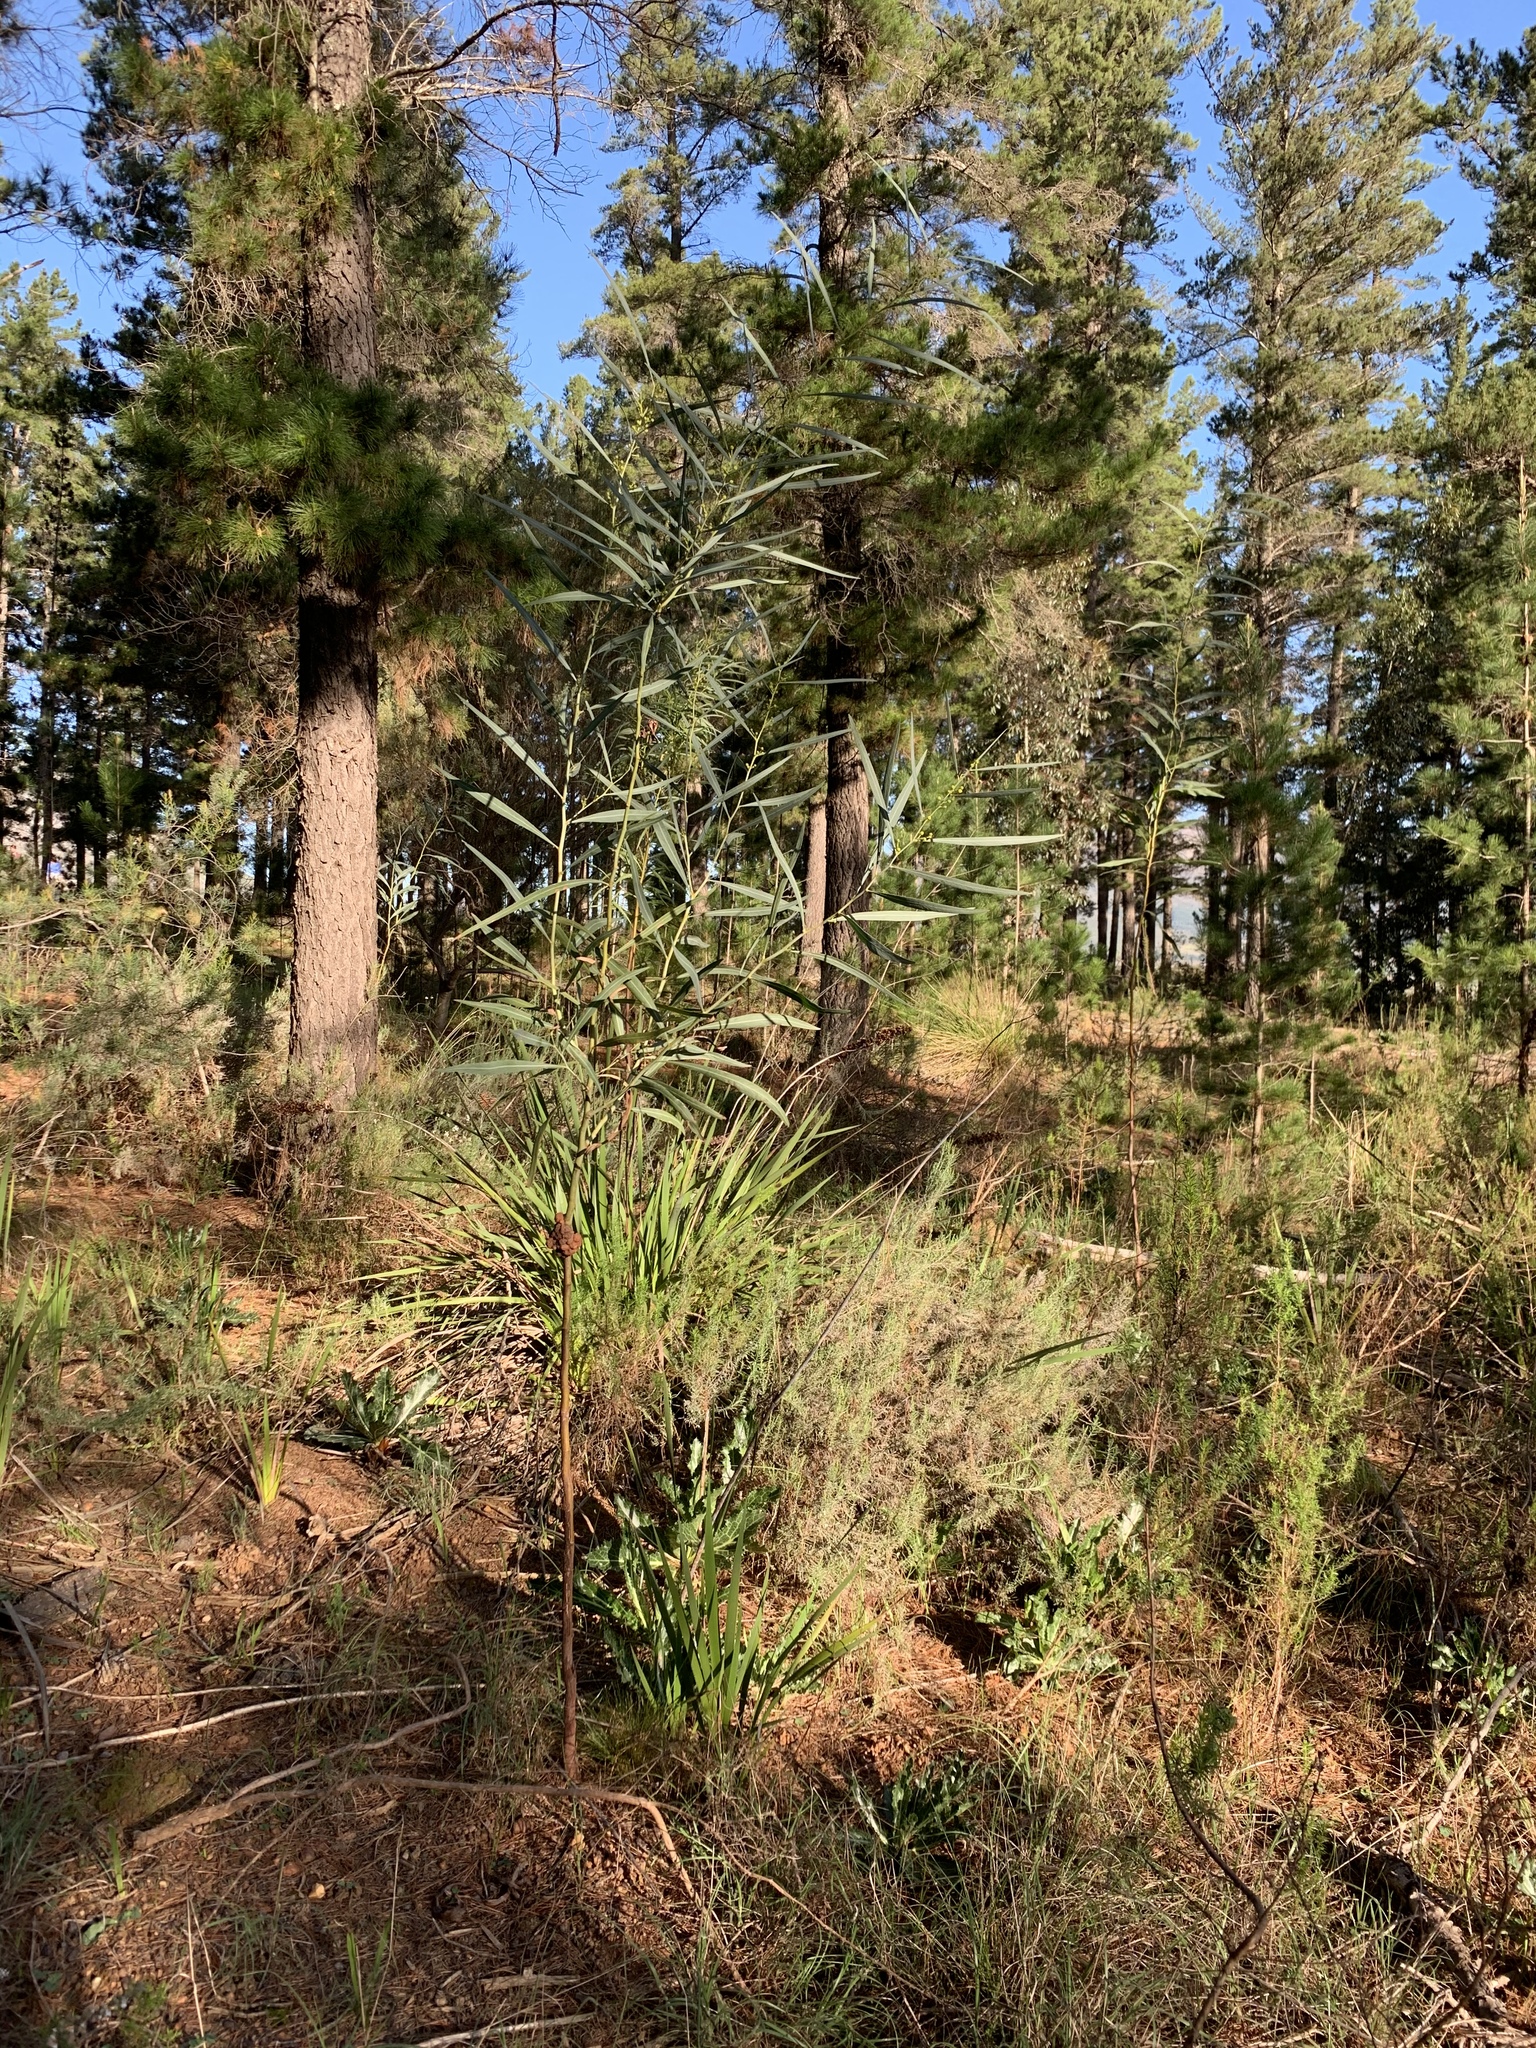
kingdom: Plantae
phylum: Tracheophyta
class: Magnoliopsida
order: Fabales
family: Fabaceae
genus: Acacia
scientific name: Acacia saligna
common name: Orange wattle
